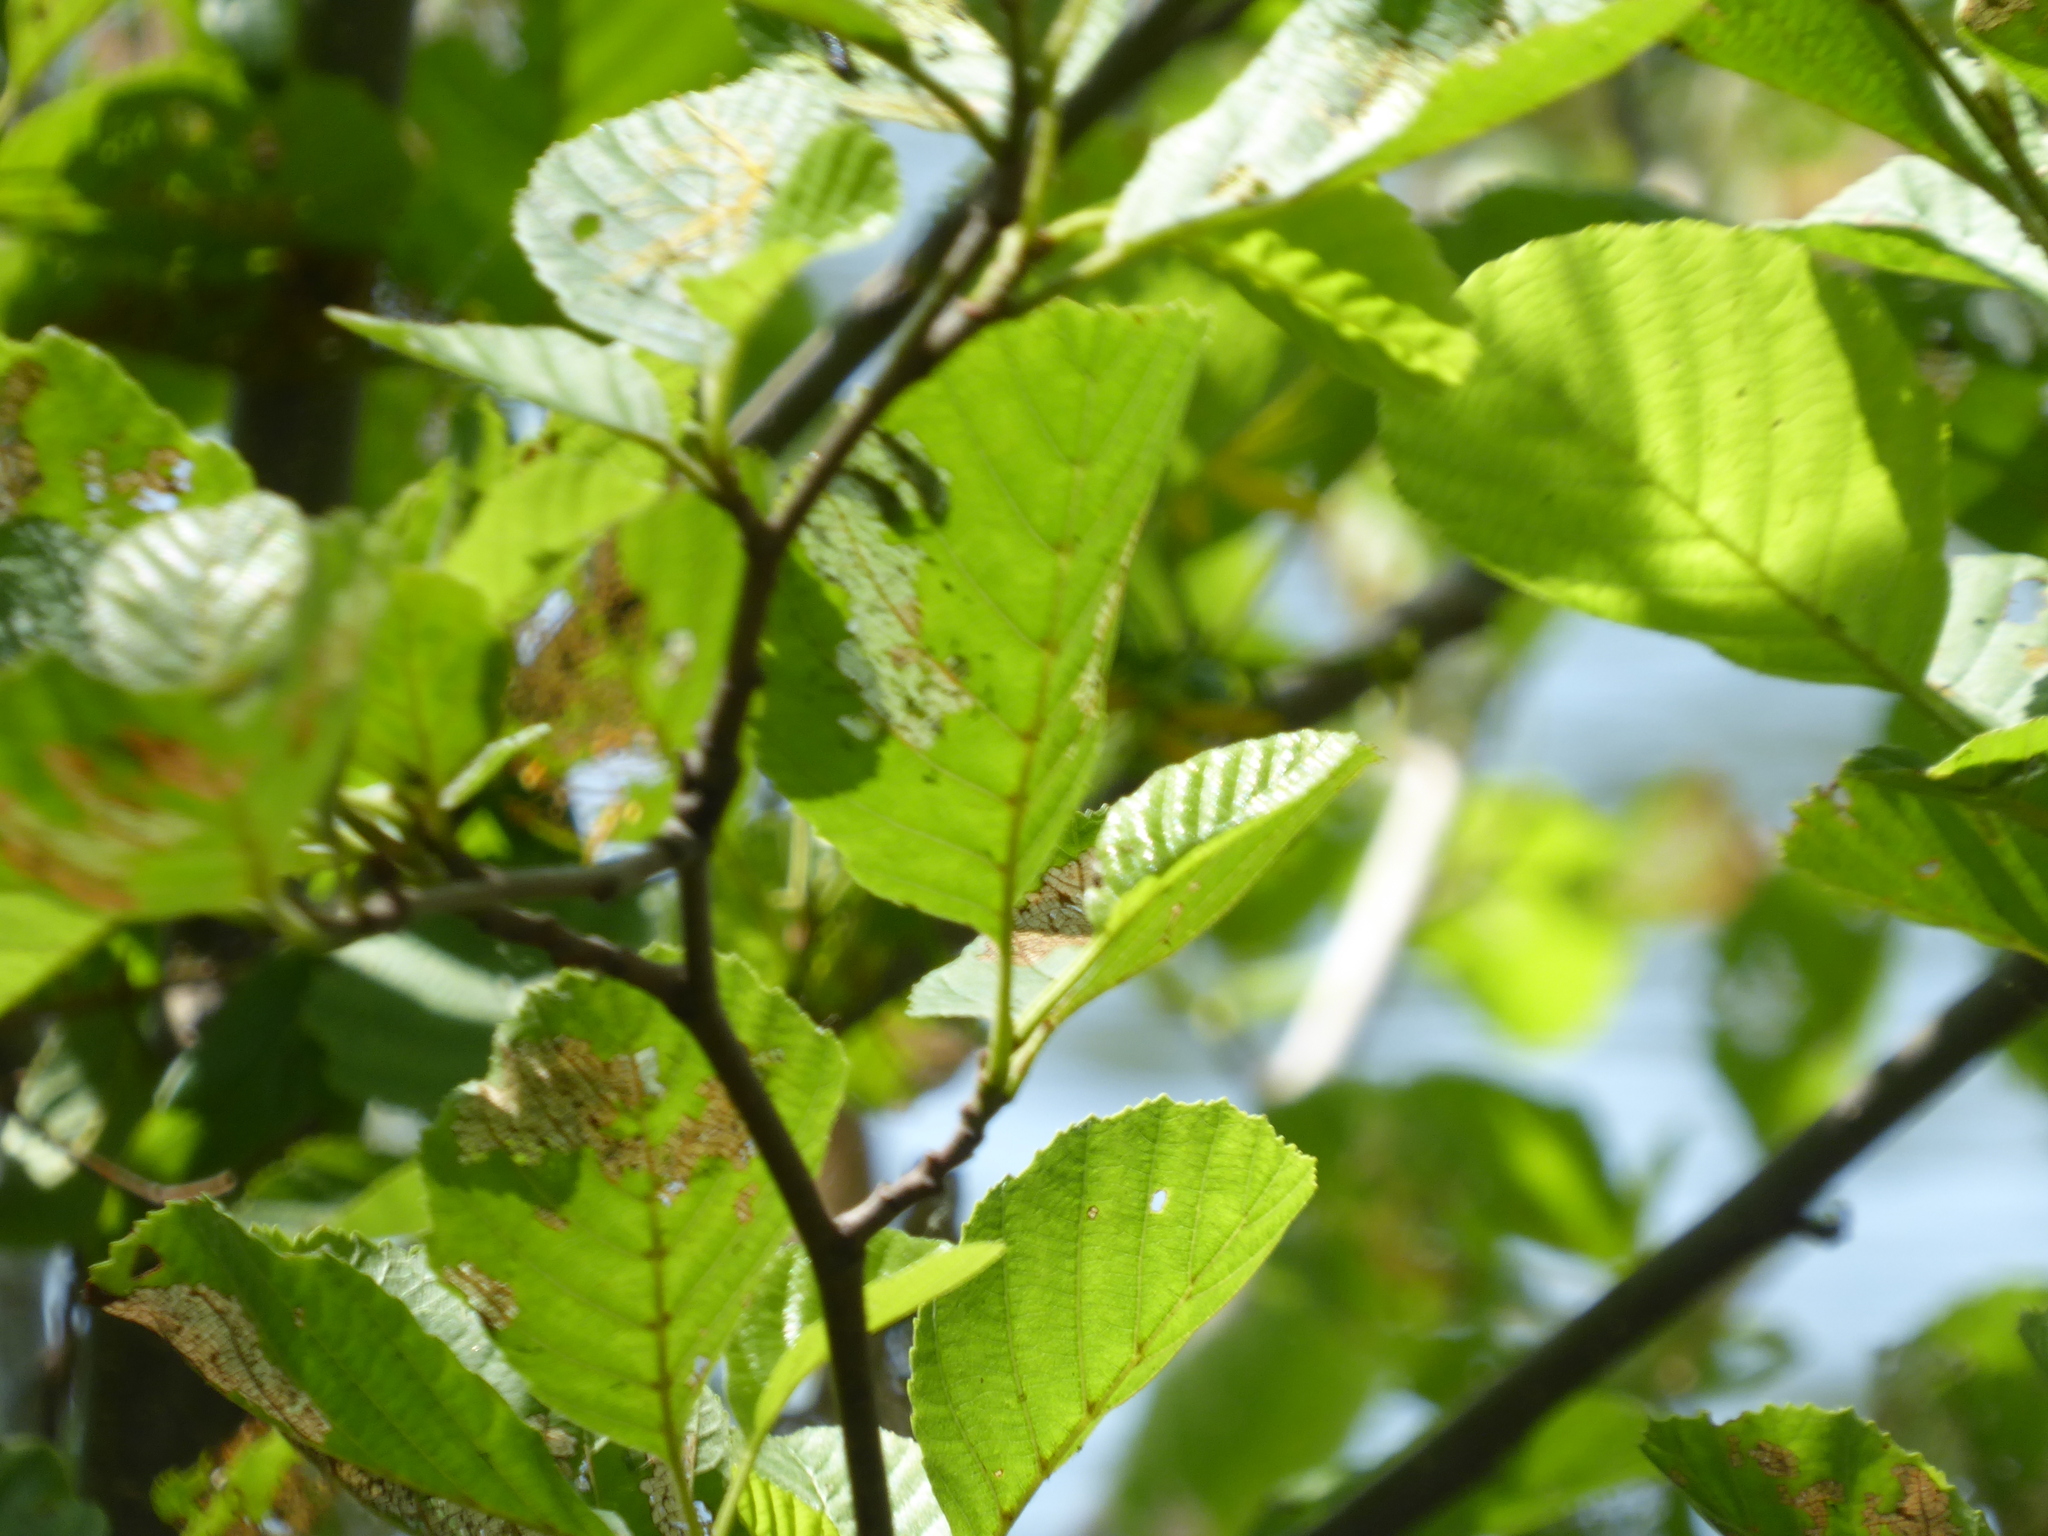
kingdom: Plantae
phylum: Tracheophyta
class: Magnoliopsida
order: Fagales
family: Betulaceae
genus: Alnus
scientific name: Alnus glutinosa
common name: Black alder
